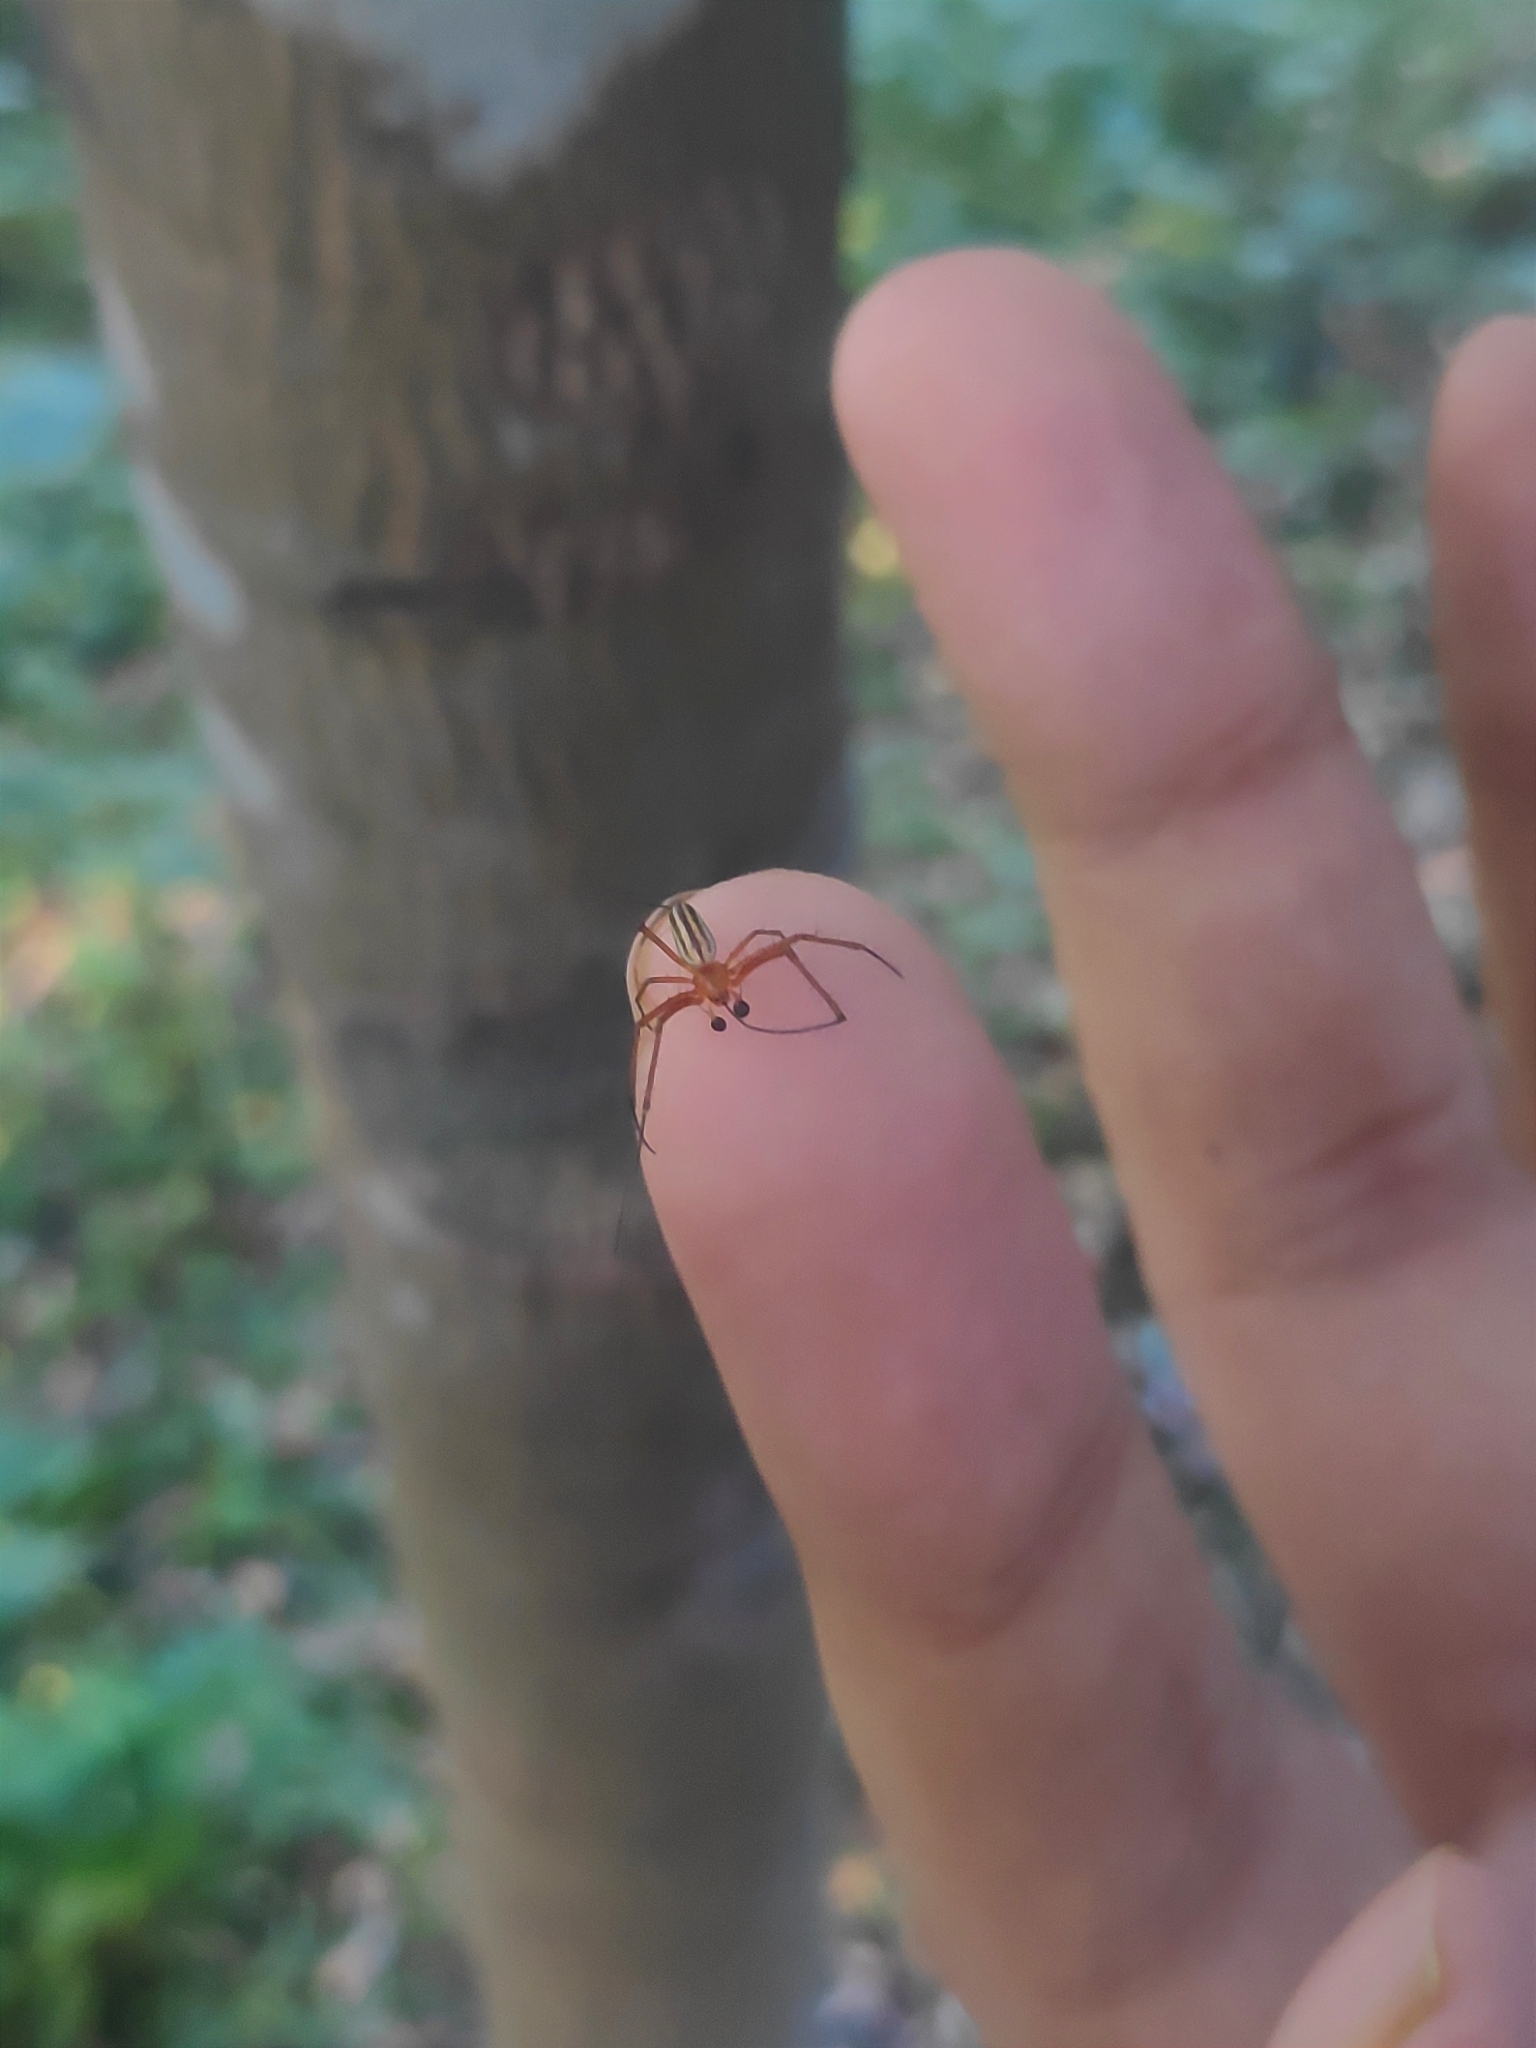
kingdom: Animalia
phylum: Arthropoda
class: Arachnida
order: Araneae
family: Araneidae
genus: Nephila
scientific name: Nephila pilipes
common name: Giant golden orb weaver
